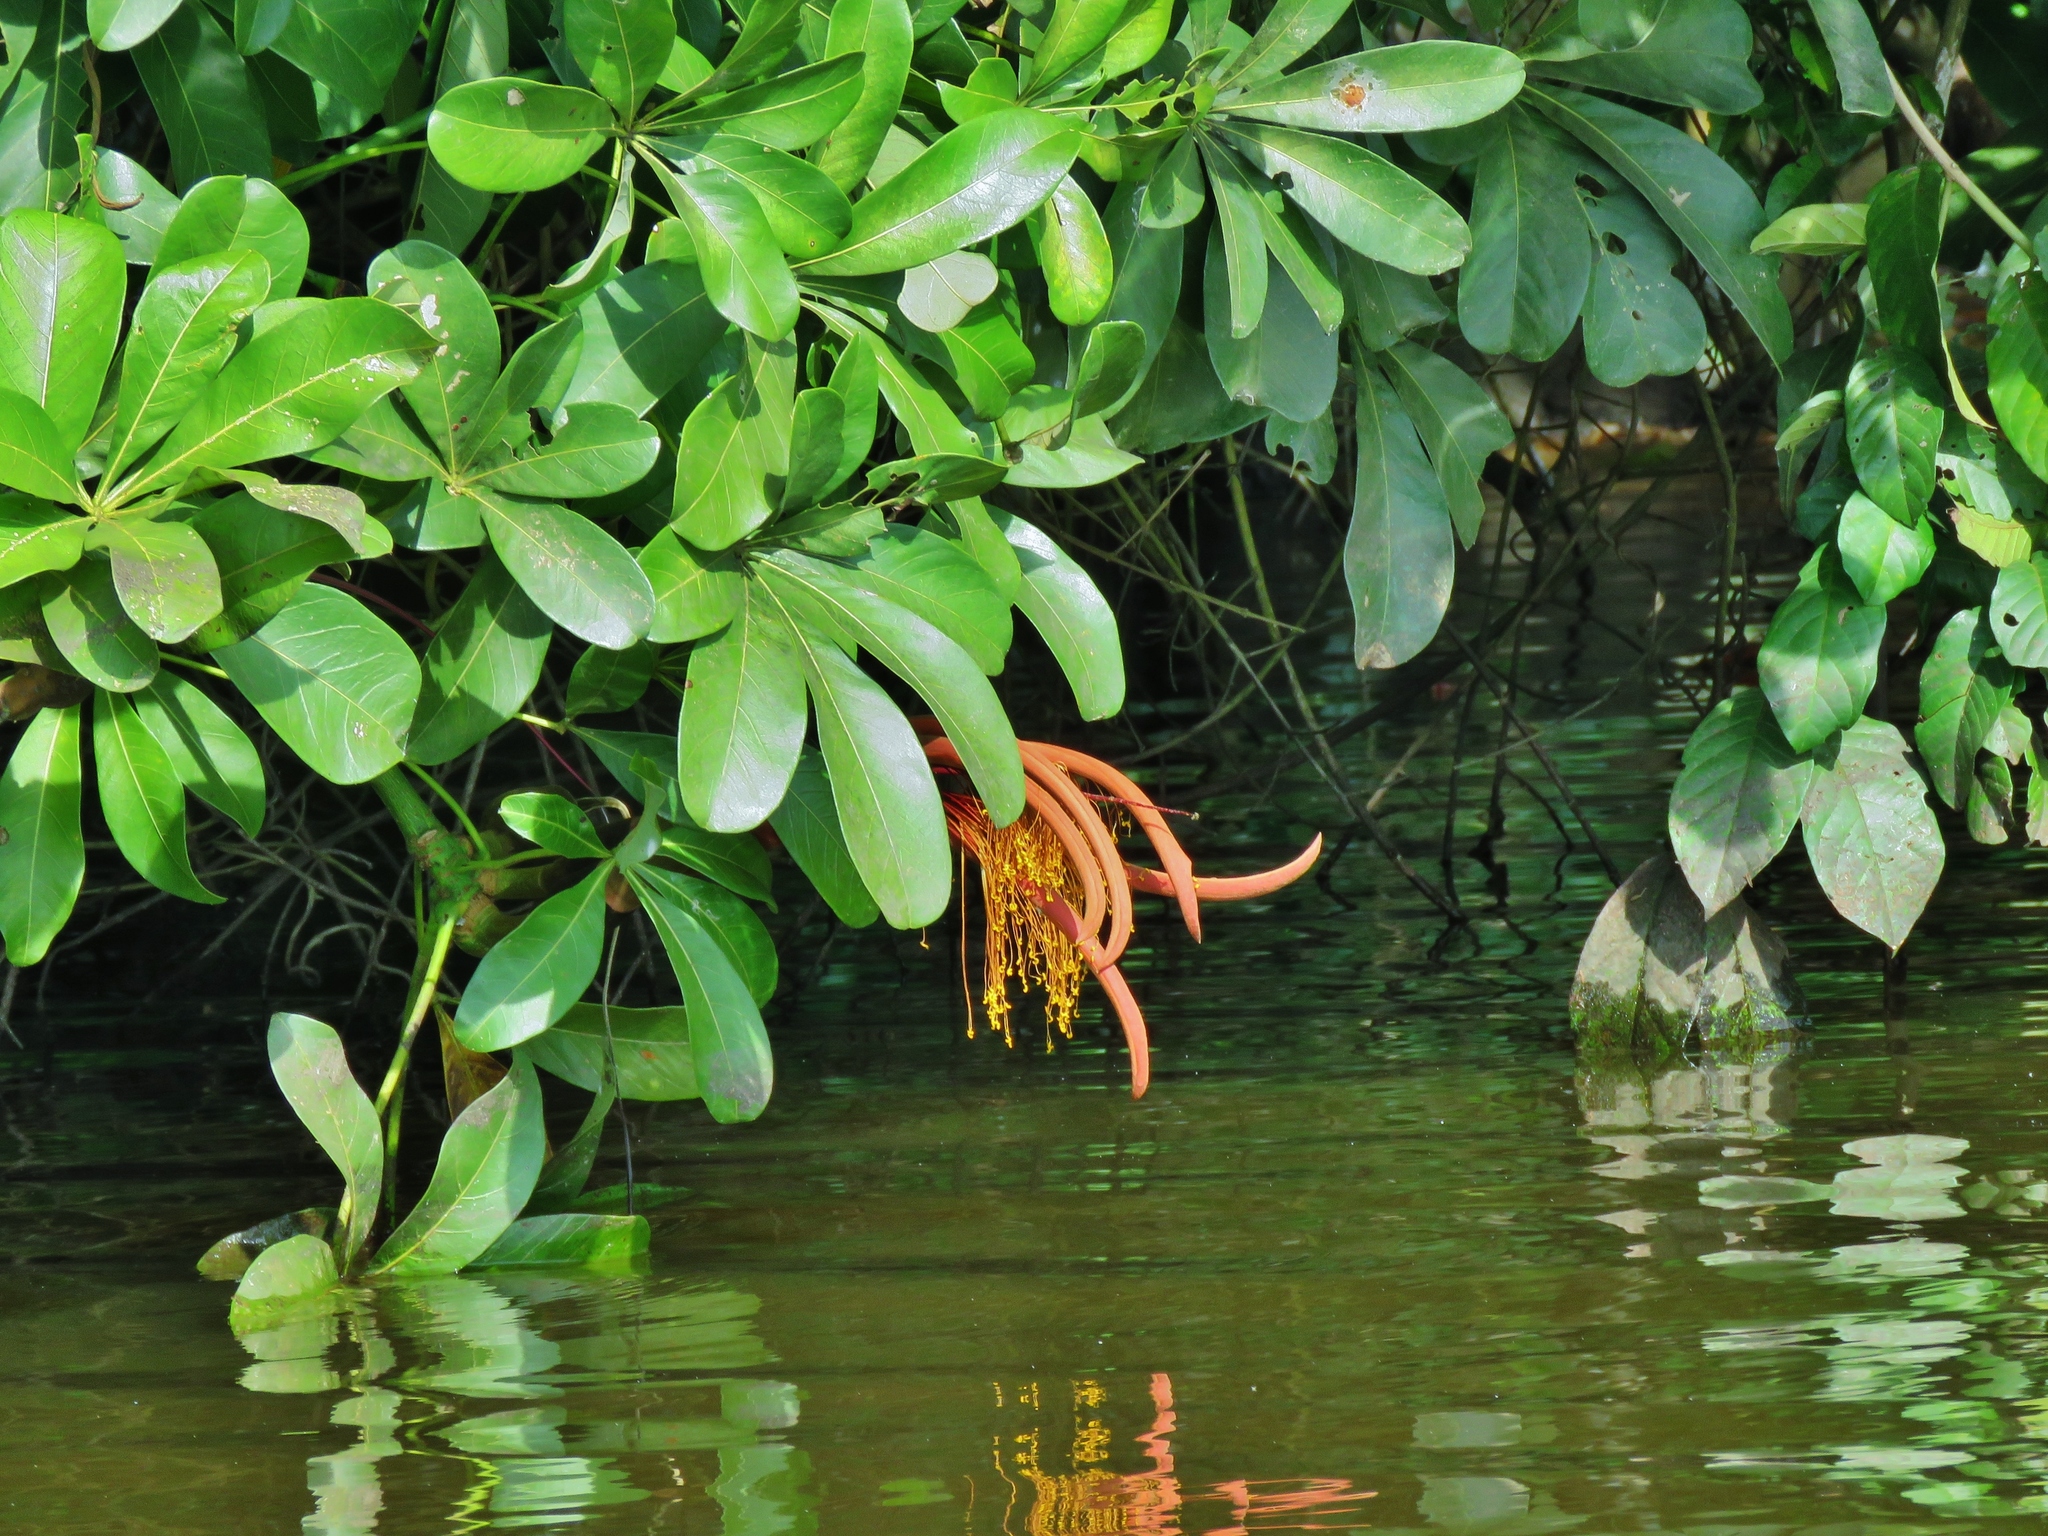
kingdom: Plantae
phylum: Tracheophyta
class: Magnoliopsida
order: Malvales
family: Malvaceae
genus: Pachira
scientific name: Pachira insignis
